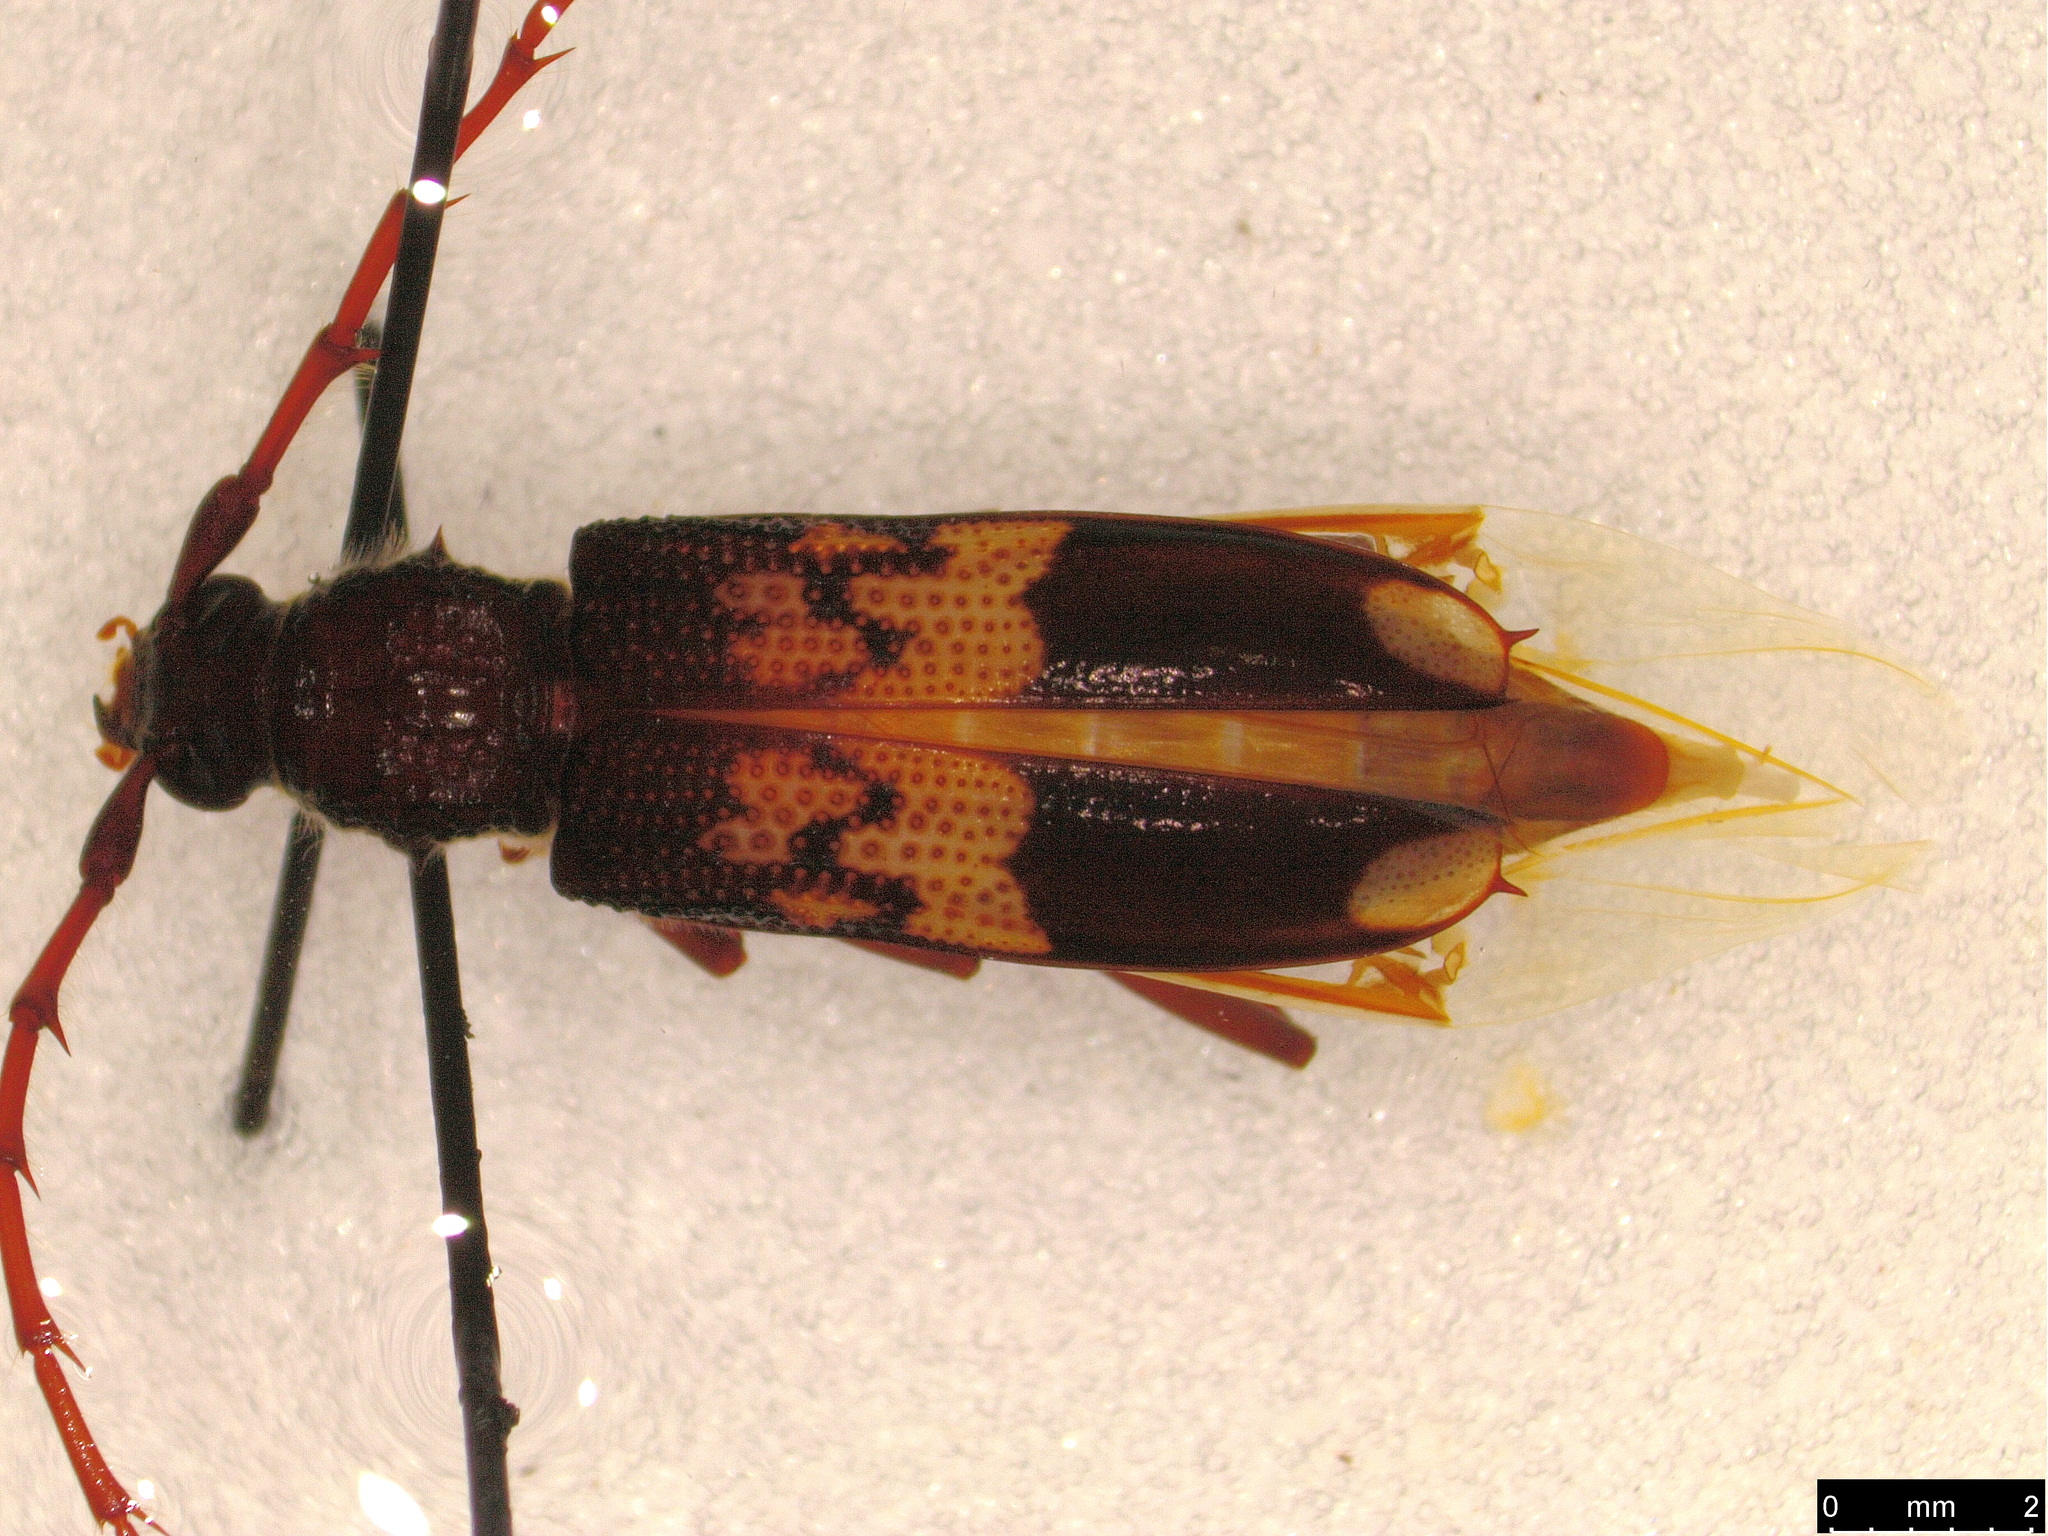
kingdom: Animalia
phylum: Arthropoda
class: Insecta
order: Coleoptera
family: Cerambycidae
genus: Phoracantha
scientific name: Phoracantha semipunctata
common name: Eucalyptus longhorn borer
